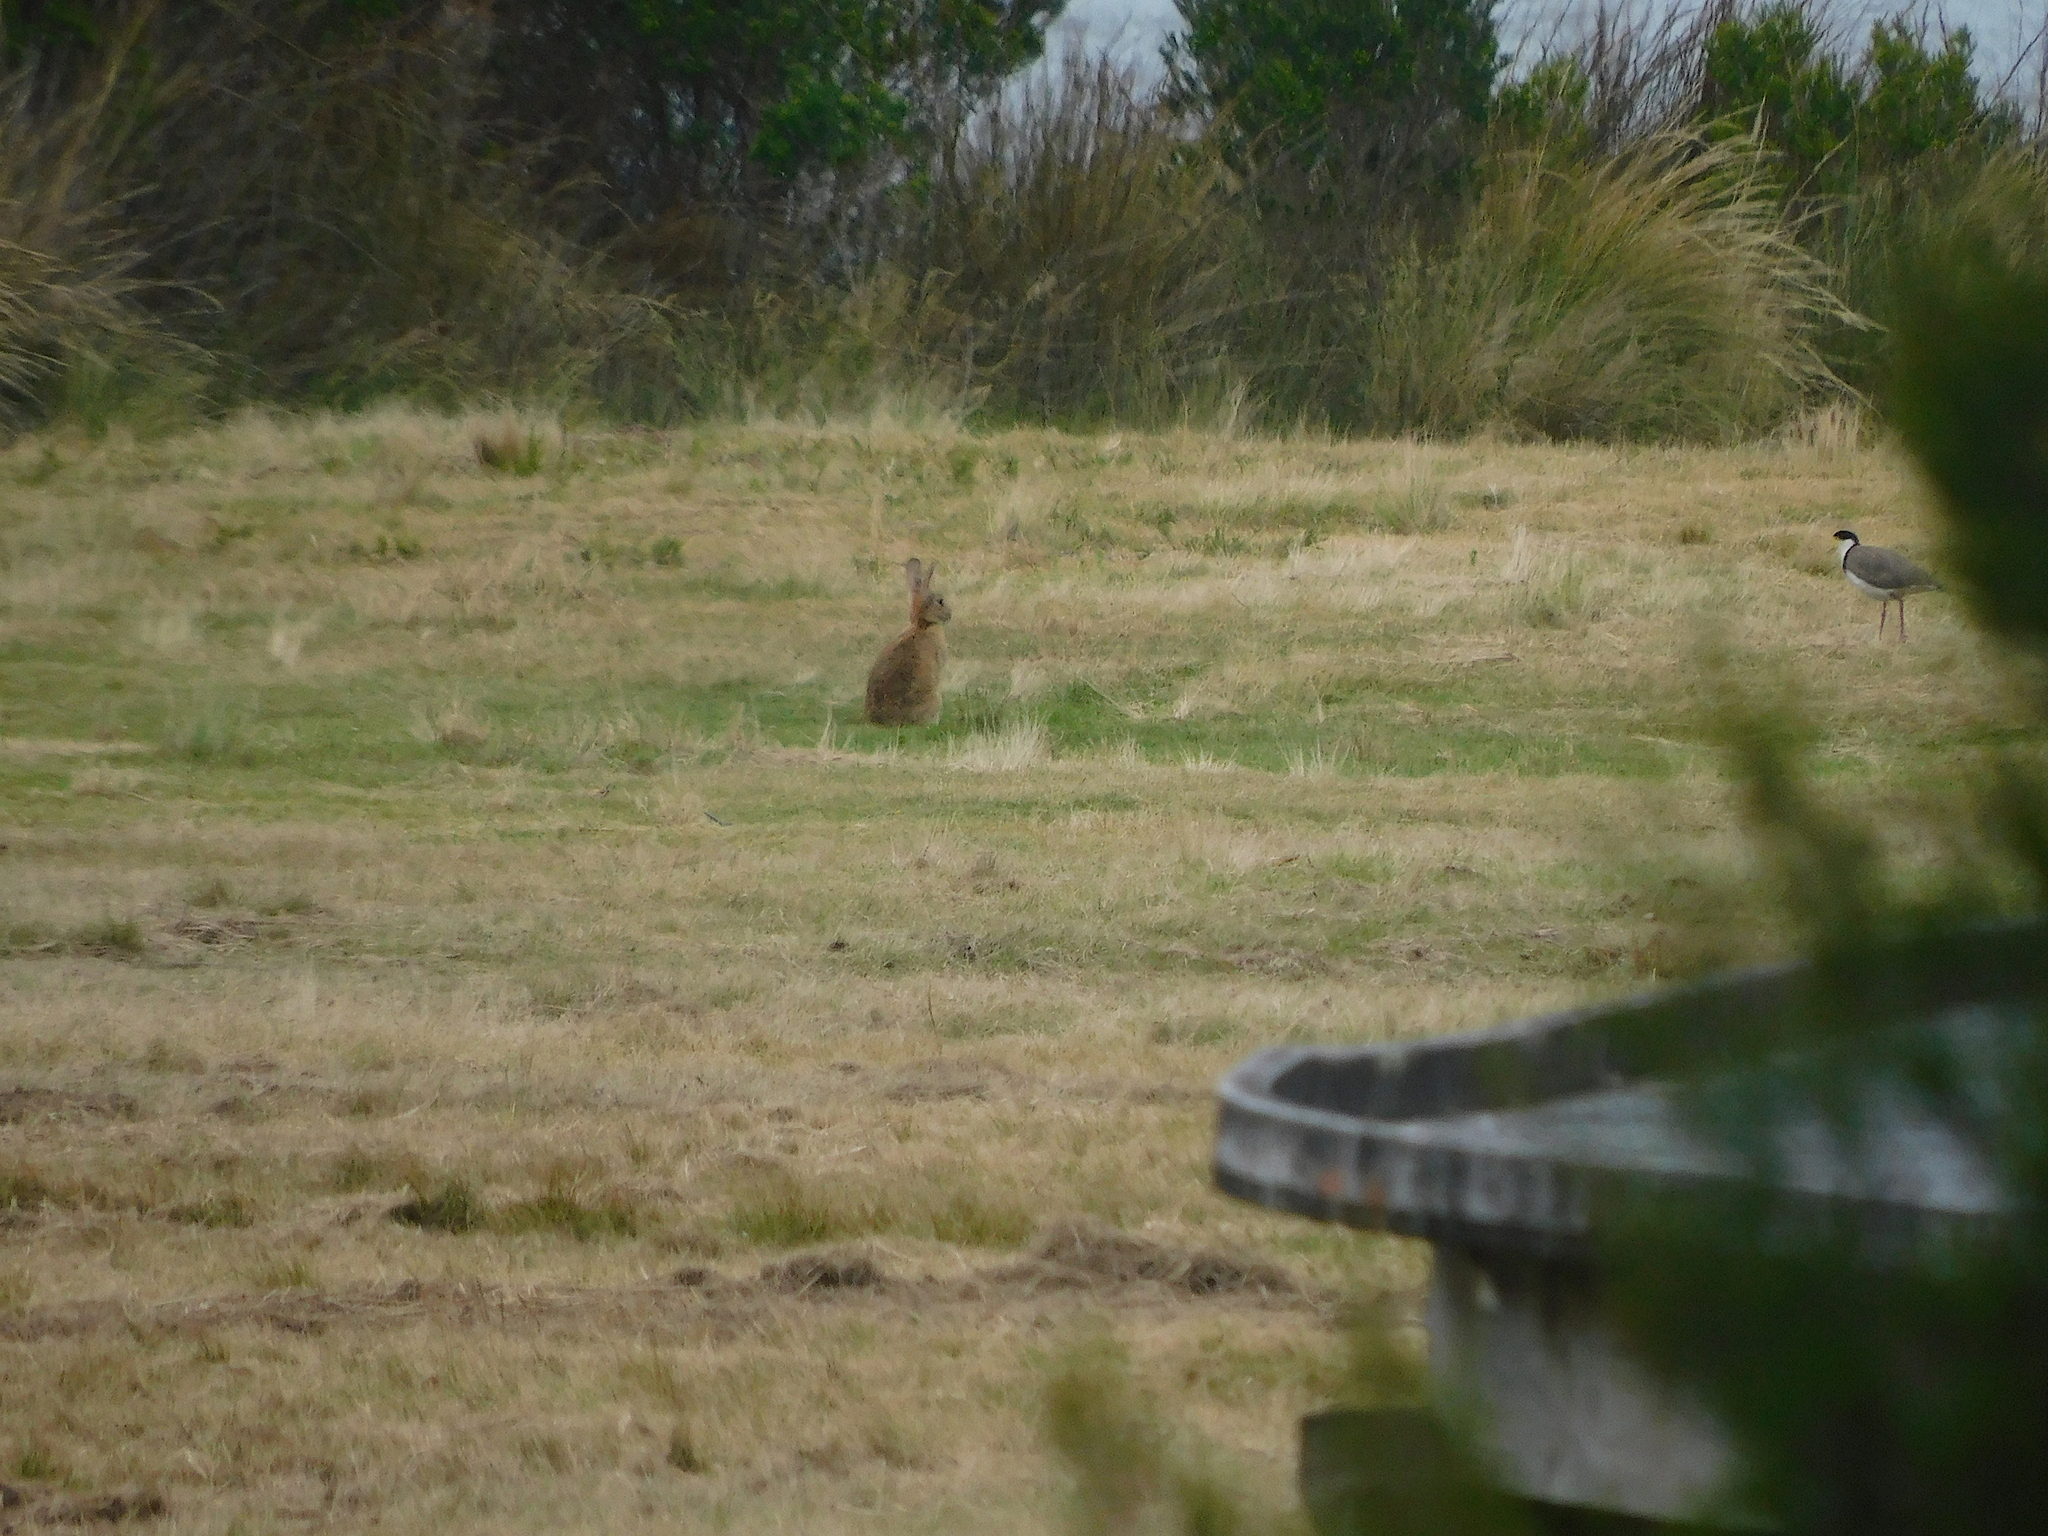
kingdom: Animalia
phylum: Chordata
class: Mammalia
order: Lagomorpha
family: Leporidae
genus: Oryctolagus
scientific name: Oryctolagus cuniculus
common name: European rabbit
